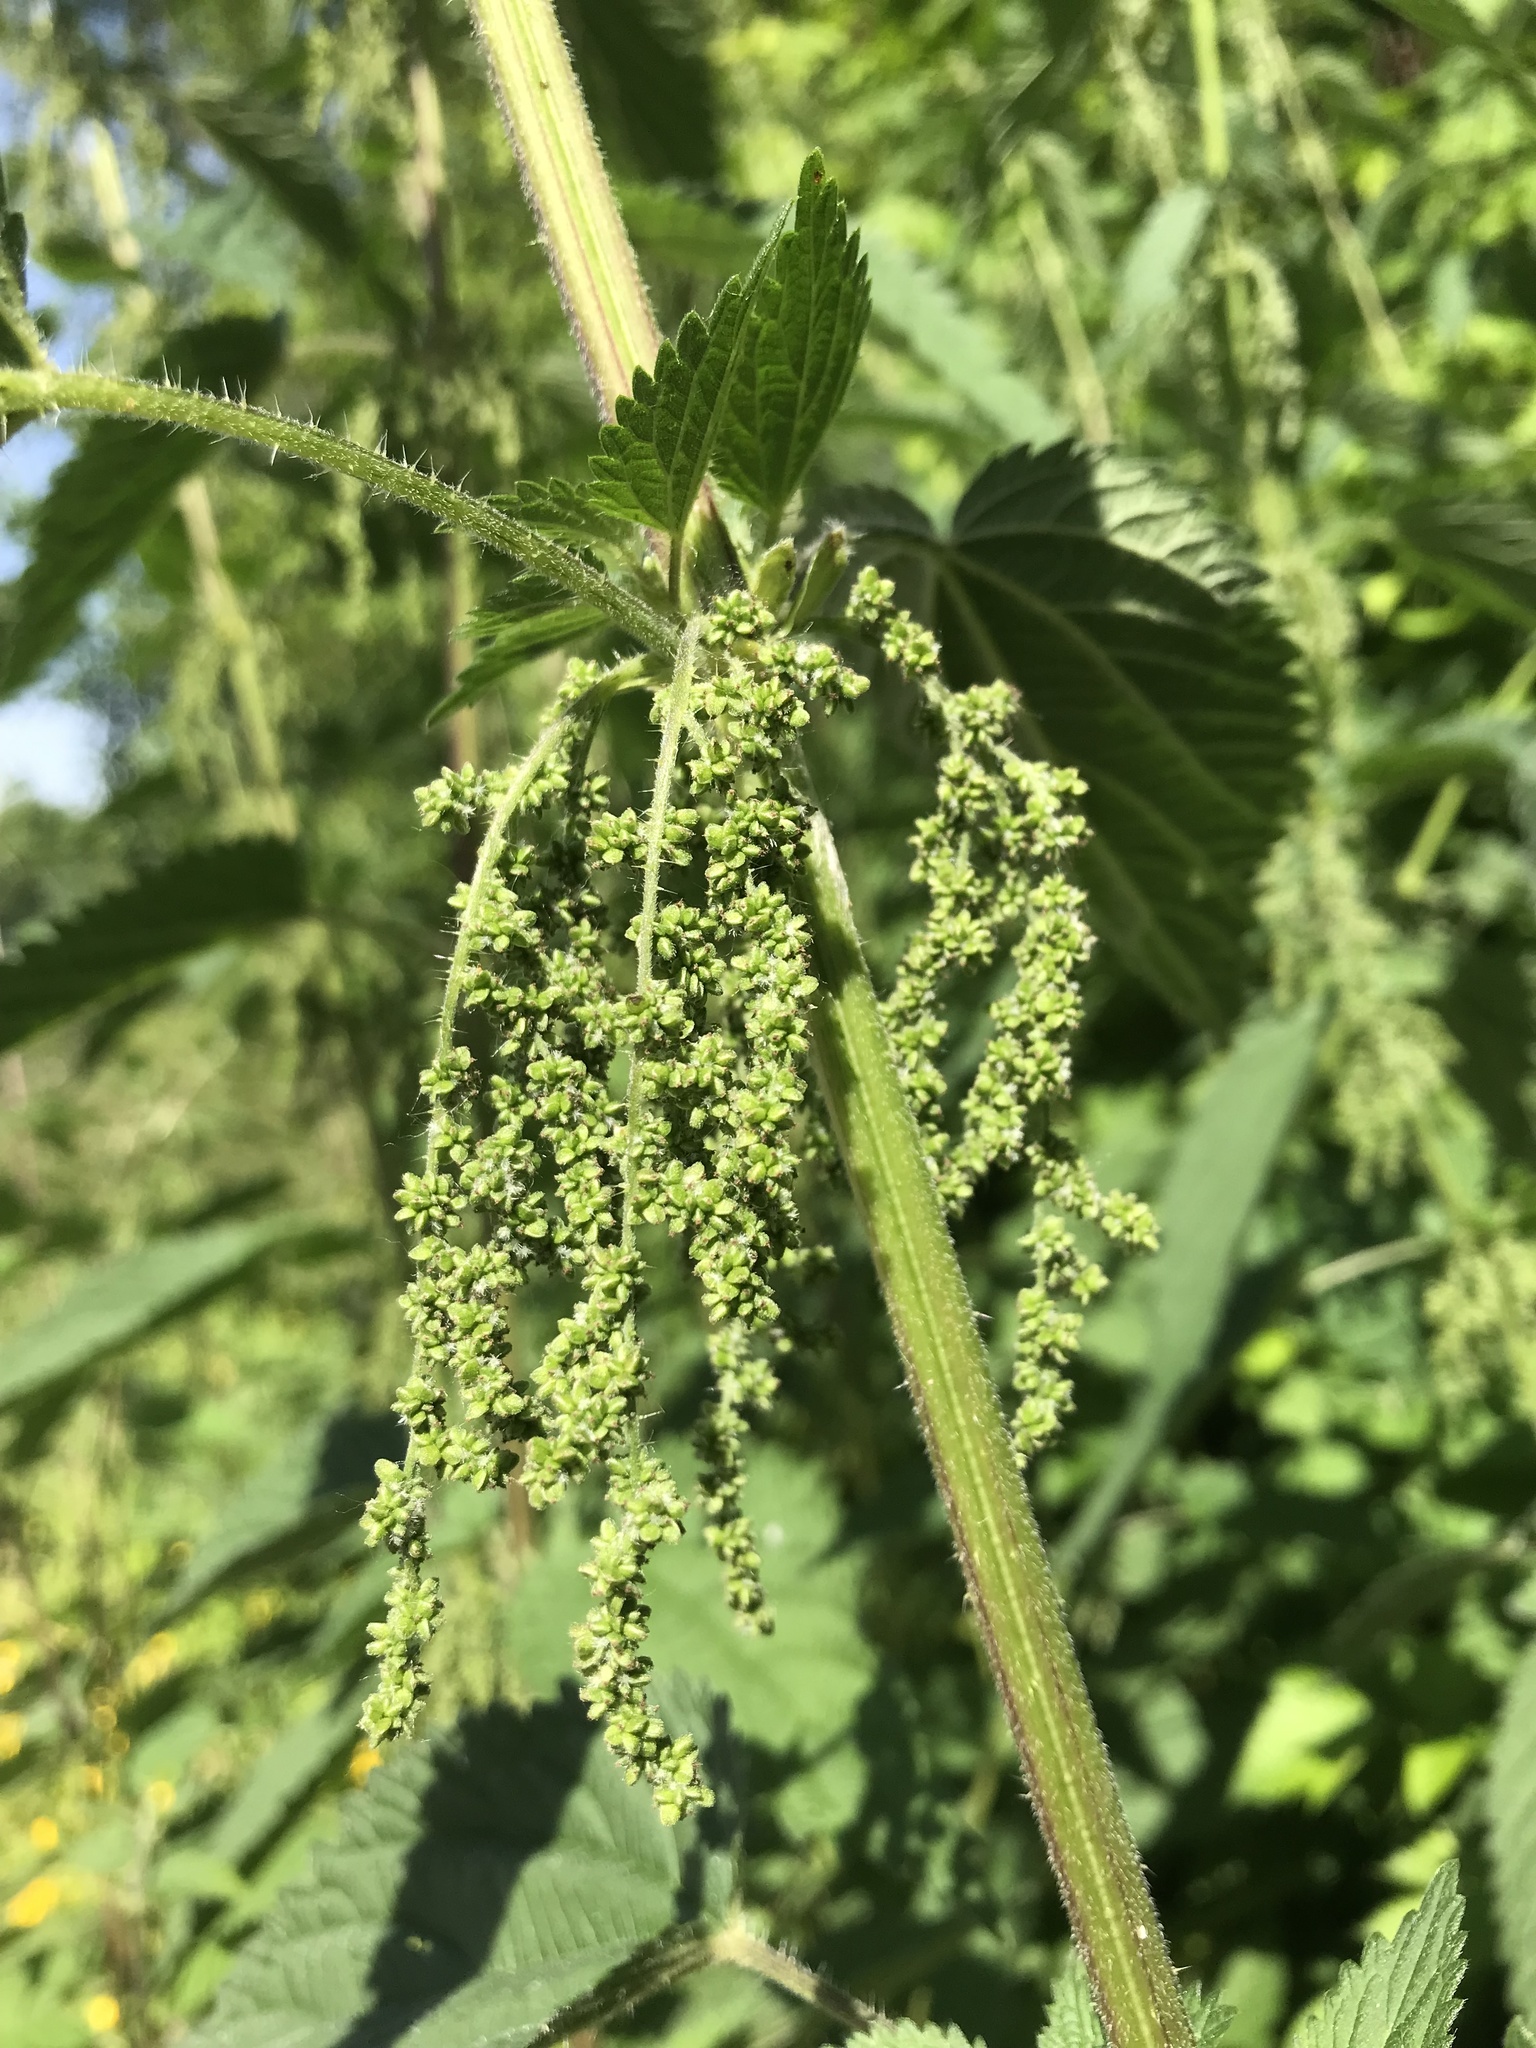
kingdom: Plantae
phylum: Tracheophyta
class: Magnoliopsida
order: Rosales
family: Urticaceae
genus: Urtica
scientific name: Urtica dioica
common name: Common nettle
